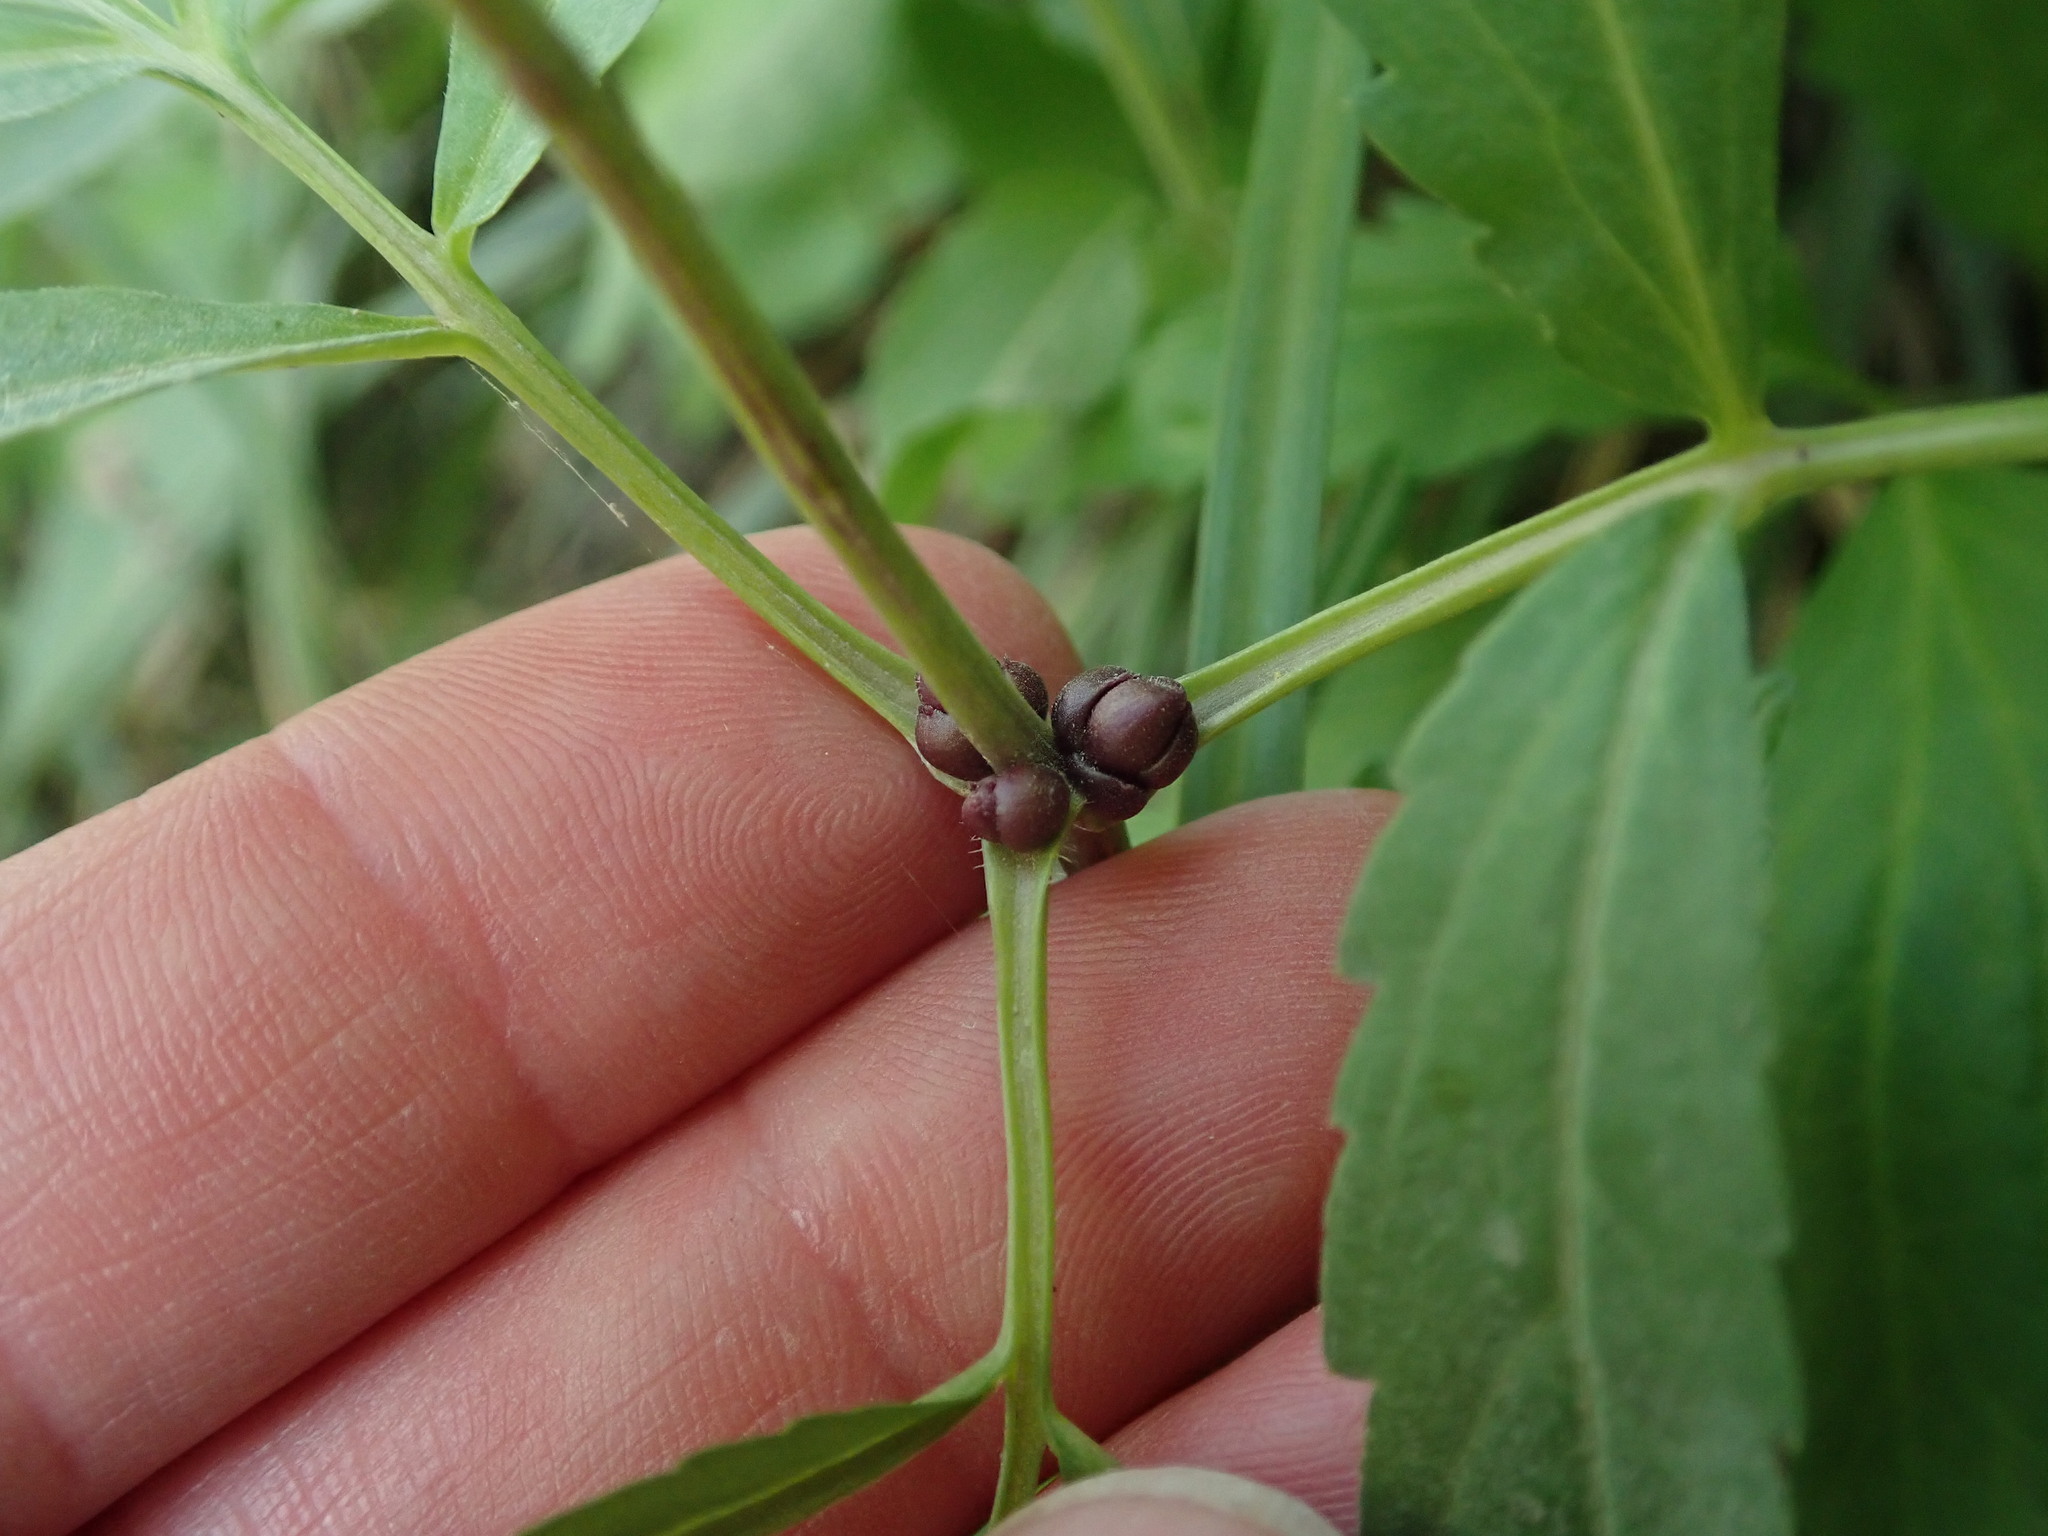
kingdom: Plantae
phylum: Tracheophyta
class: Magnoliopsida
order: Brassicales
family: Brassicaceae
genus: Cardamine
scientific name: Cardamine bulbifera
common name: Coralroot bittercress
